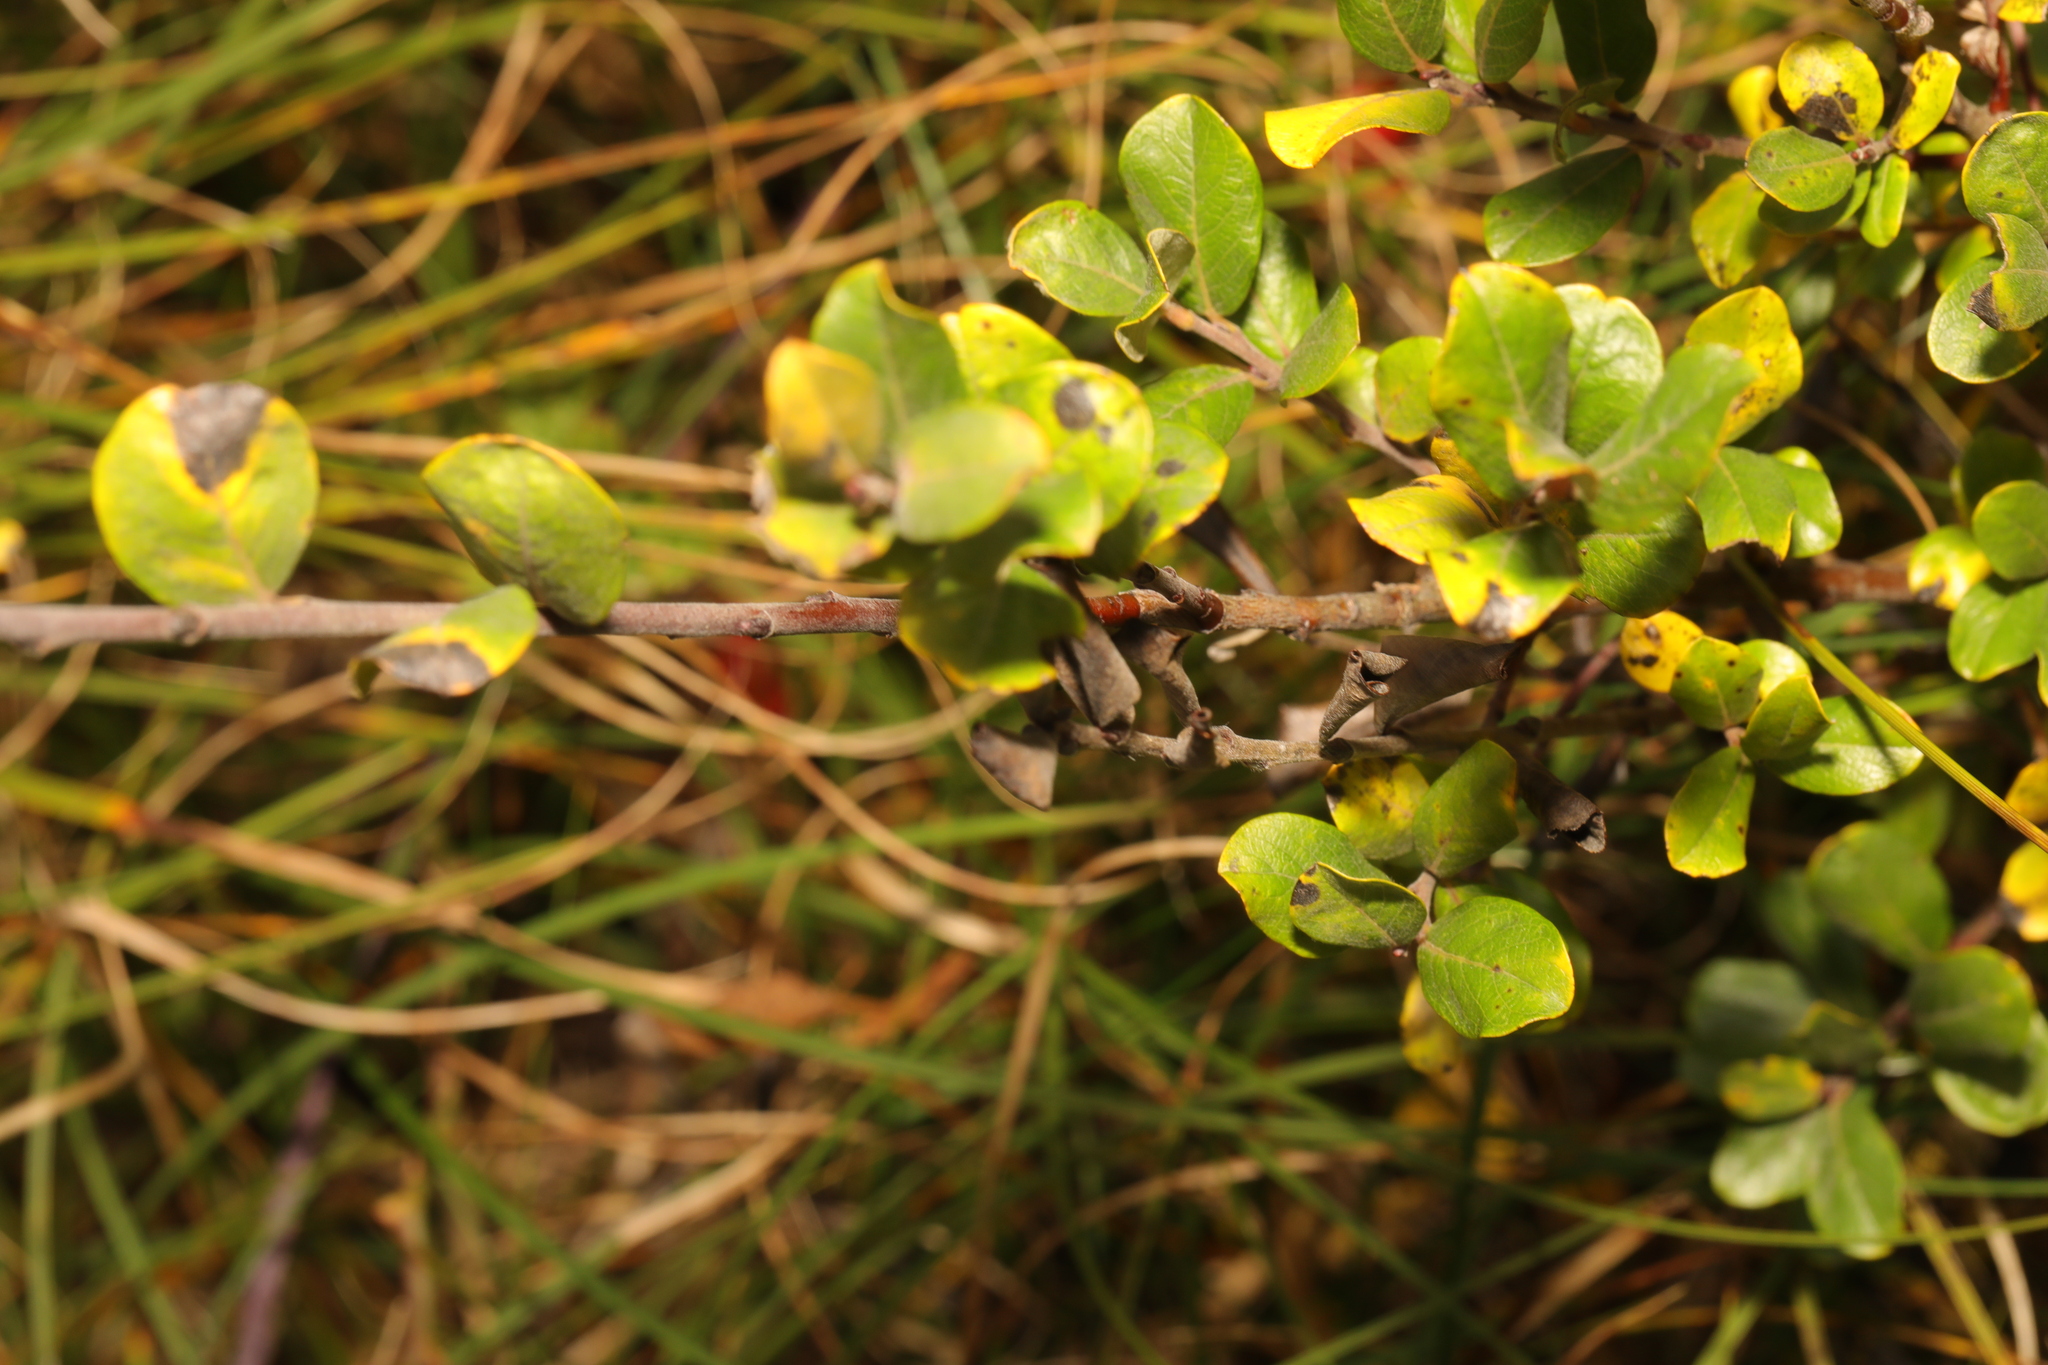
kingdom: Plantae
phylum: Tracheophyta
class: Magnoliopsida
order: Malpighiales
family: Salicaceae
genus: Salix
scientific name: Salix repens
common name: Creeping willow
